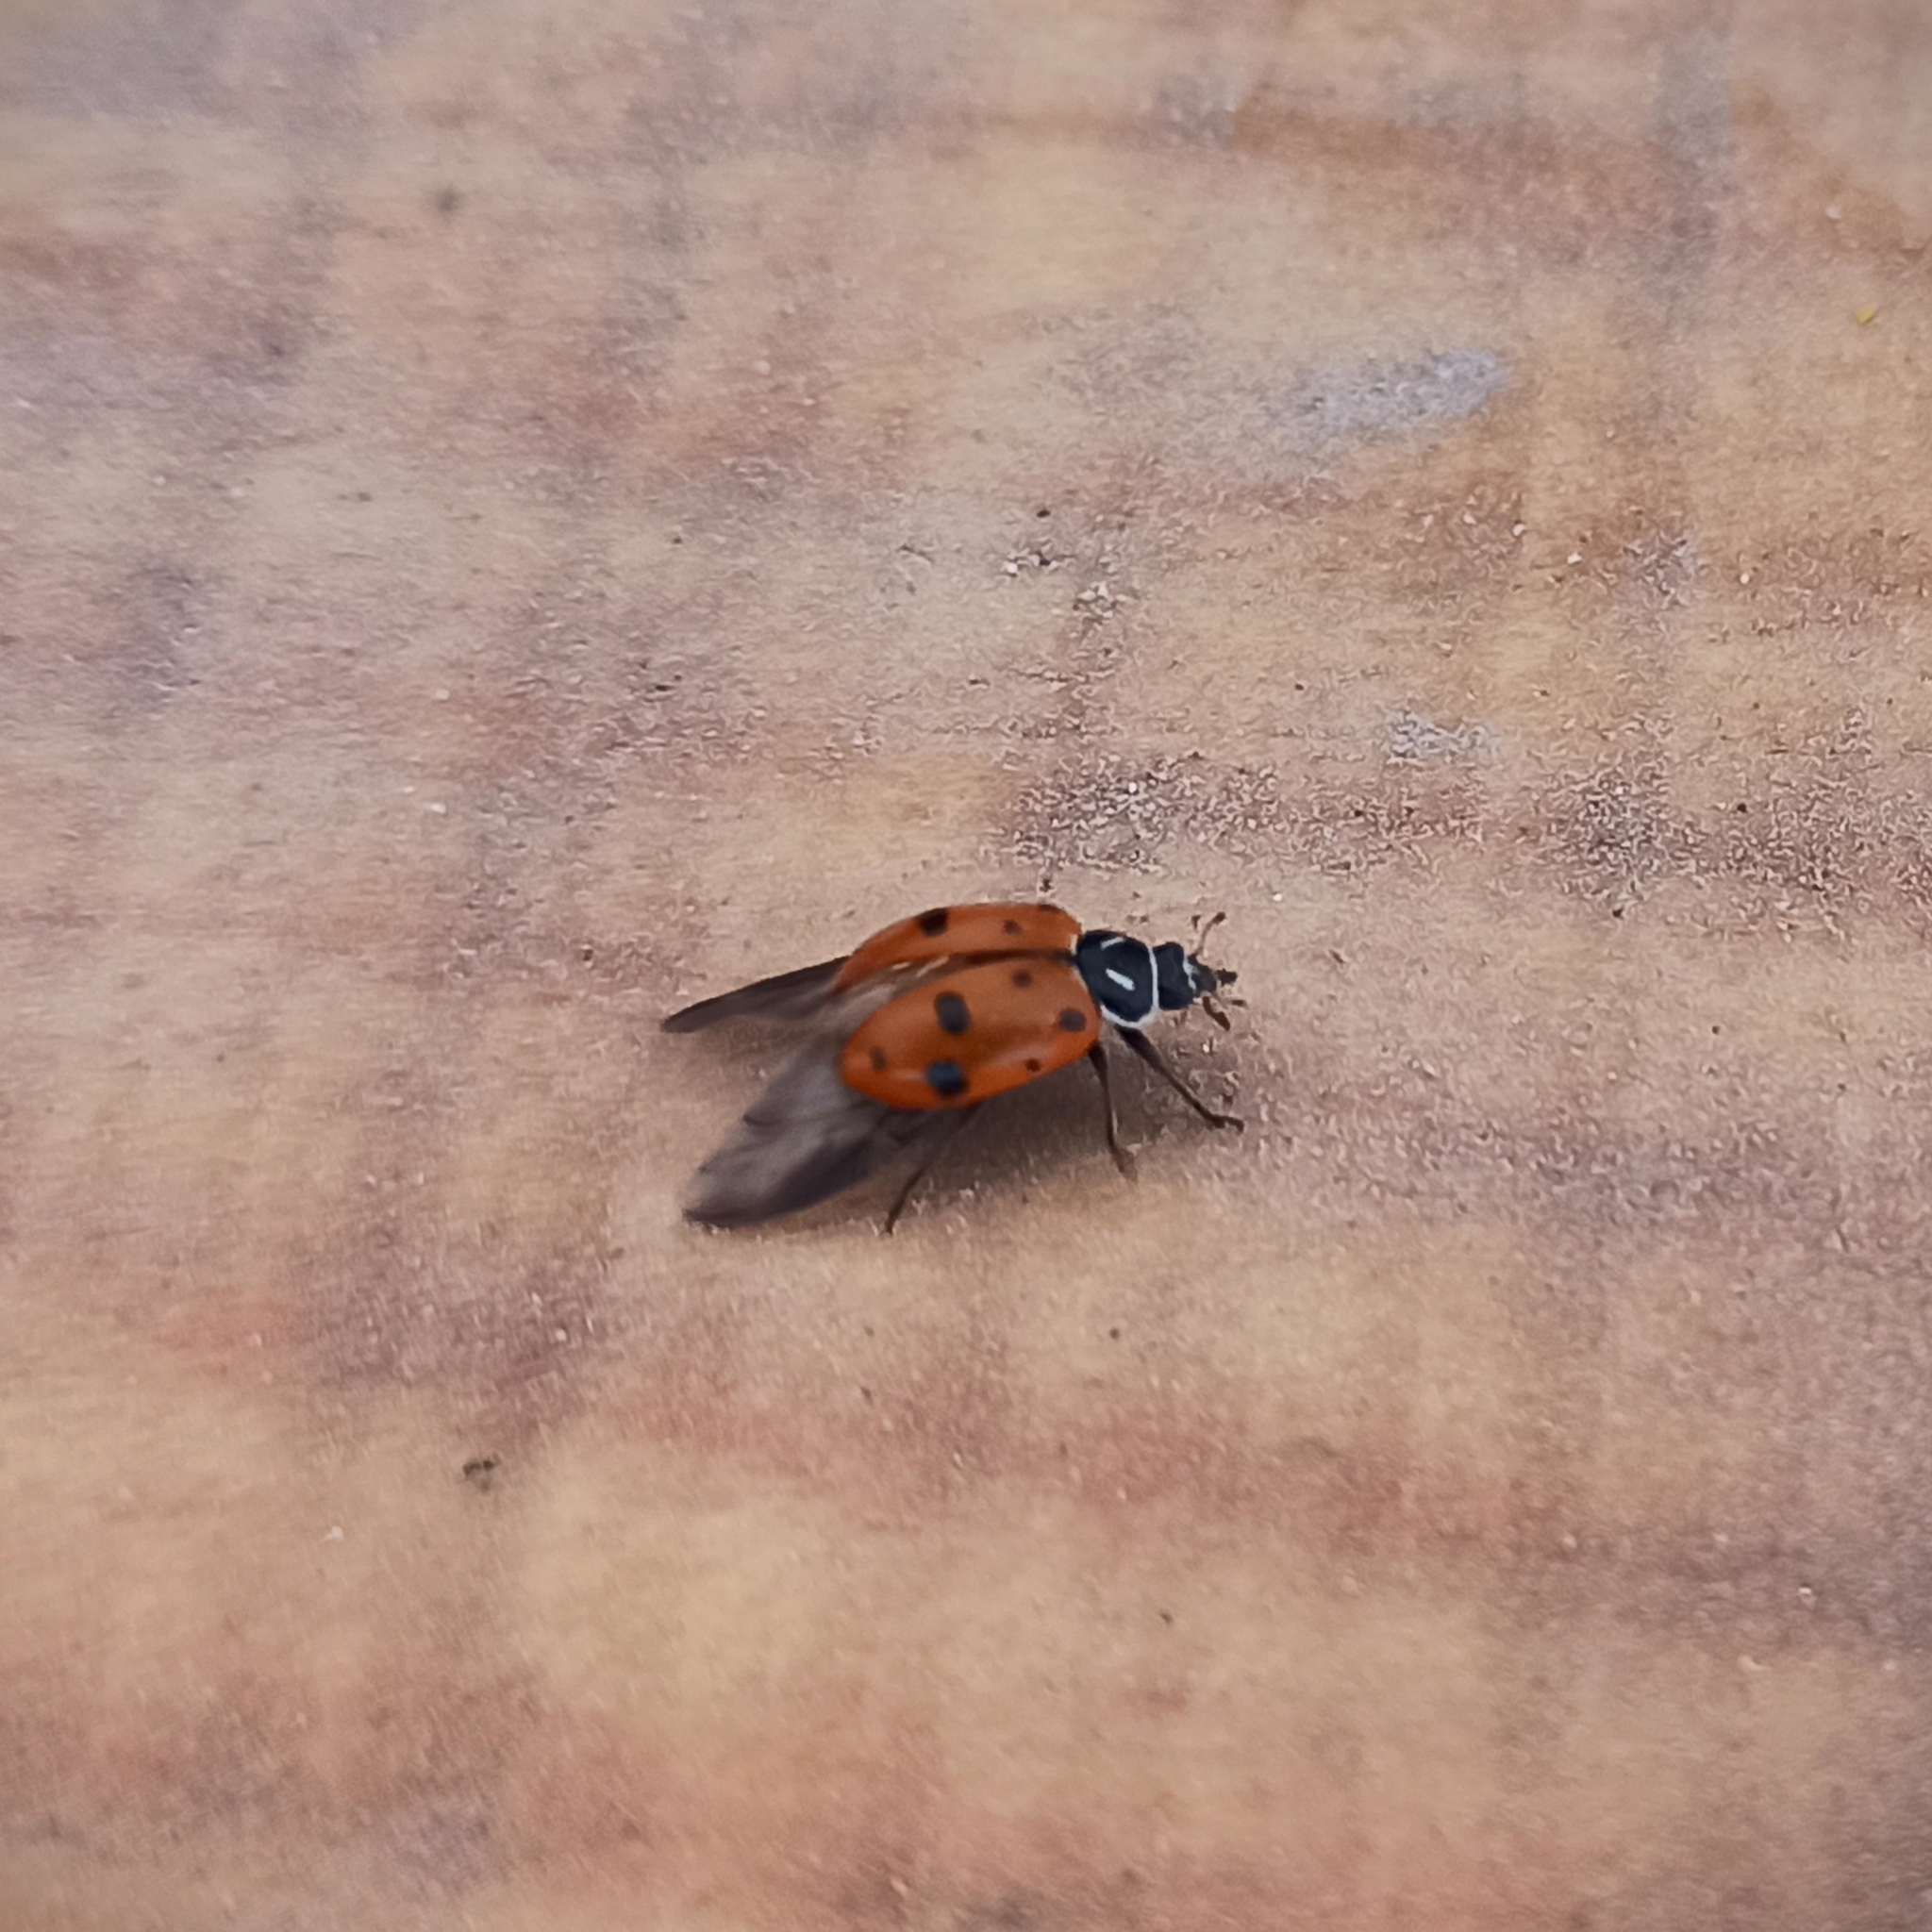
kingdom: Animalia
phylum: Arthropoda
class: Insecta
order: Coleoptera
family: Coccinellidae
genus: Hippodamia
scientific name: Hippodamia convergens
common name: Convergent lady beetle
